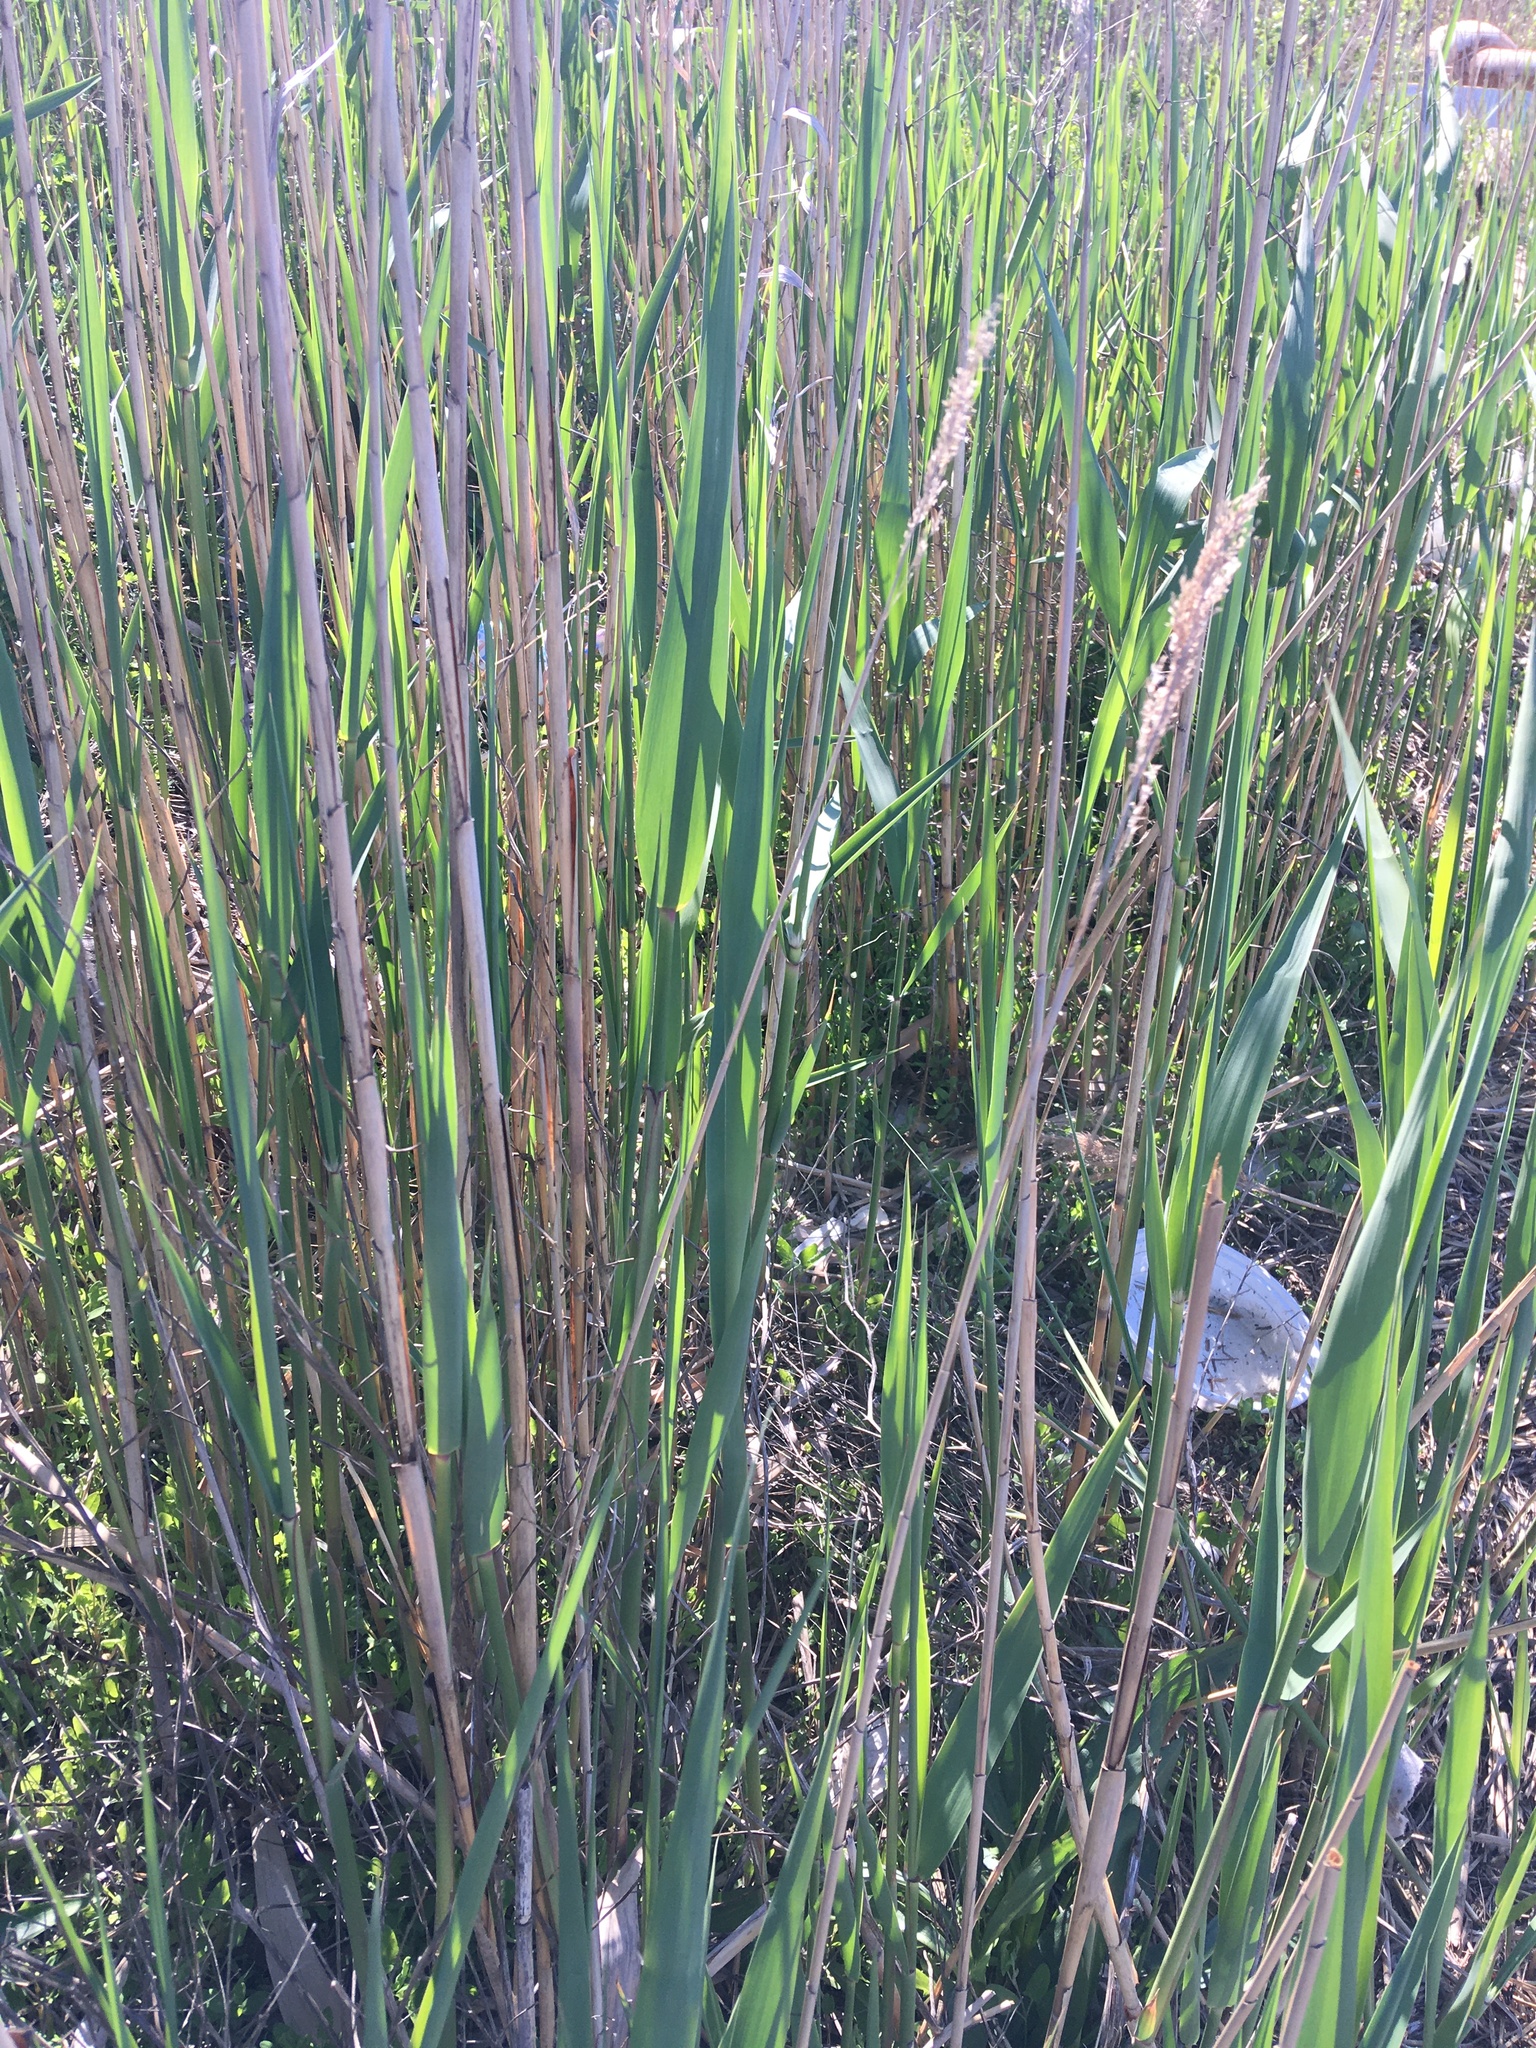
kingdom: Plantae
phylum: Tracheophyta
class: Liliopsida
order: Poales
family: Poaceae
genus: Phragmites
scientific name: Phragmites australis
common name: Common reed
